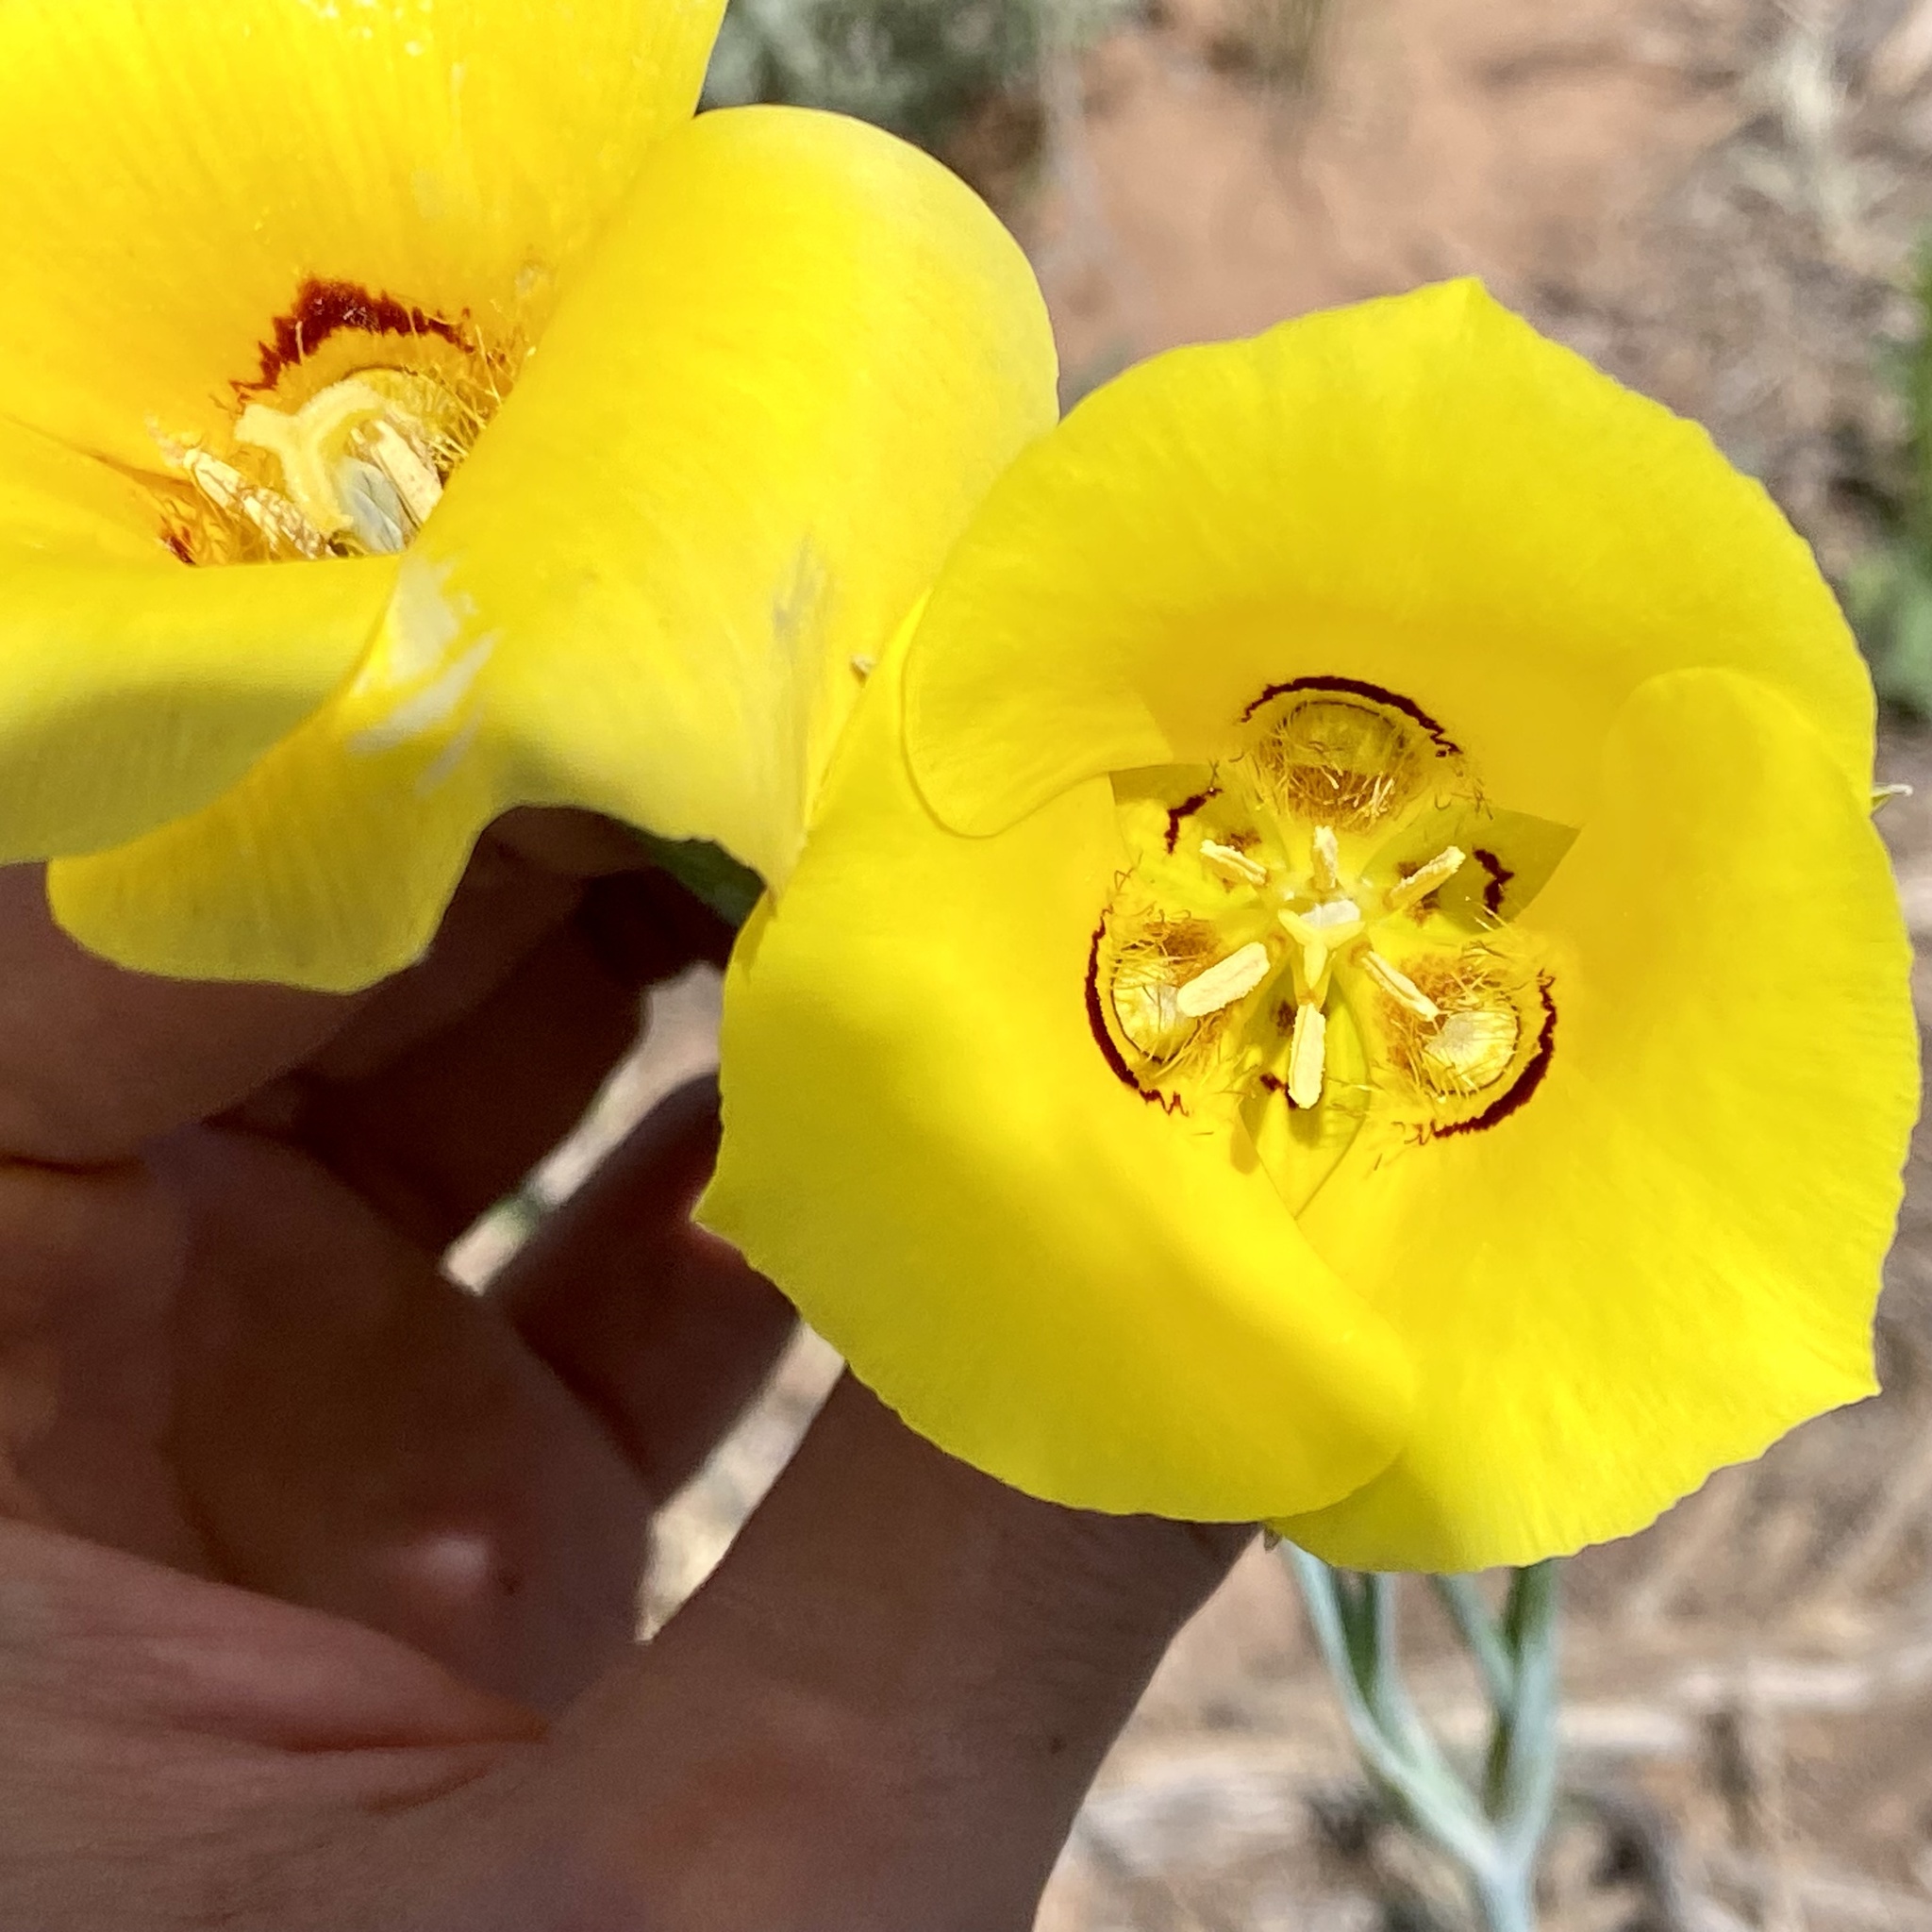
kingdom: Plantae
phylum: Tracheophyta
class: Liliopsida
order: Liliales
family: Liliaceae
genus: Calochortus
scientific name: Calochortus aureus
